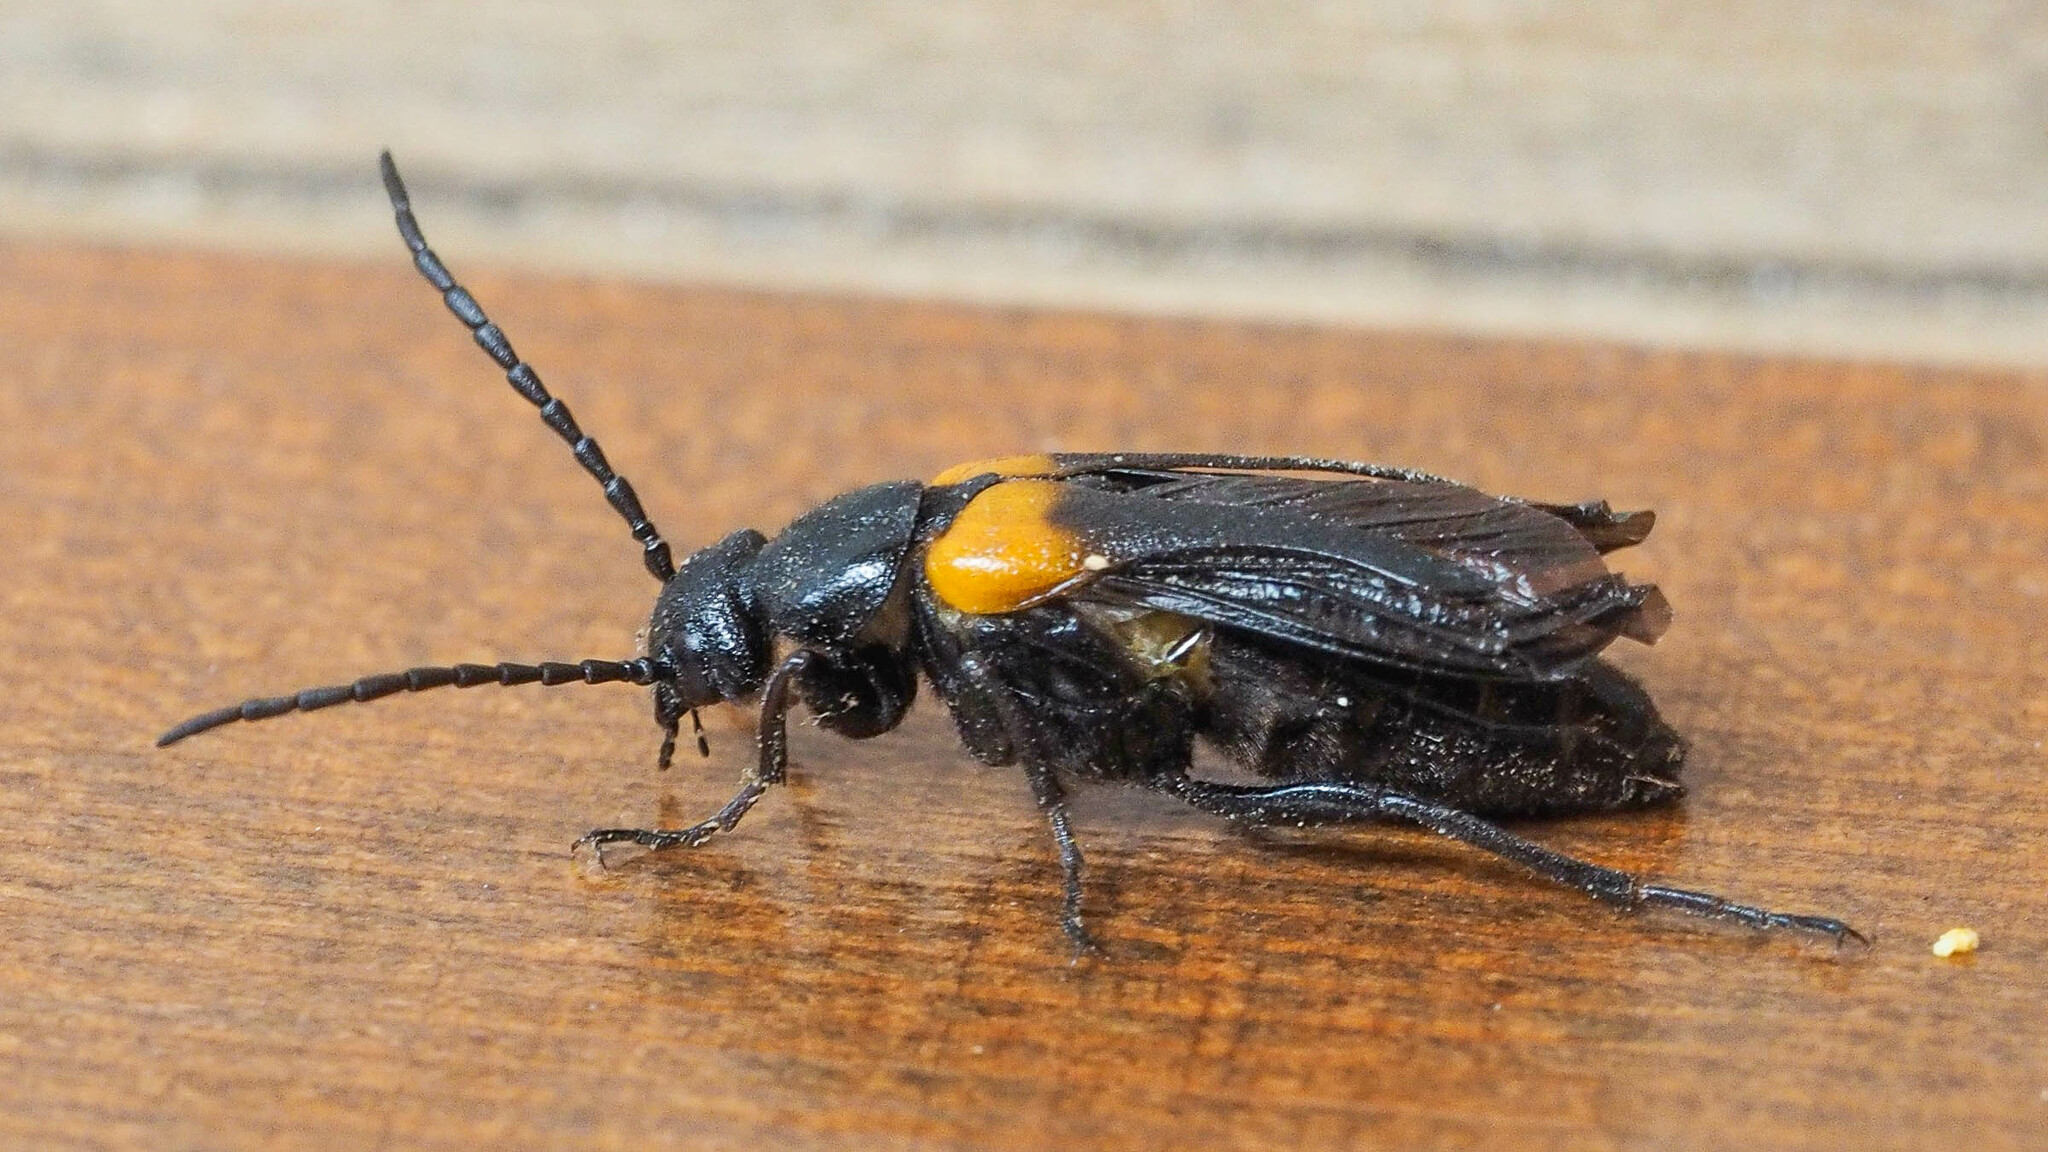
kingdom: Animalia
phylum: Arthropoda
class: Insecta
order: Coleoptera
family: Meloidae
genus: Sitaris
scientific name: Sitaris muralis
